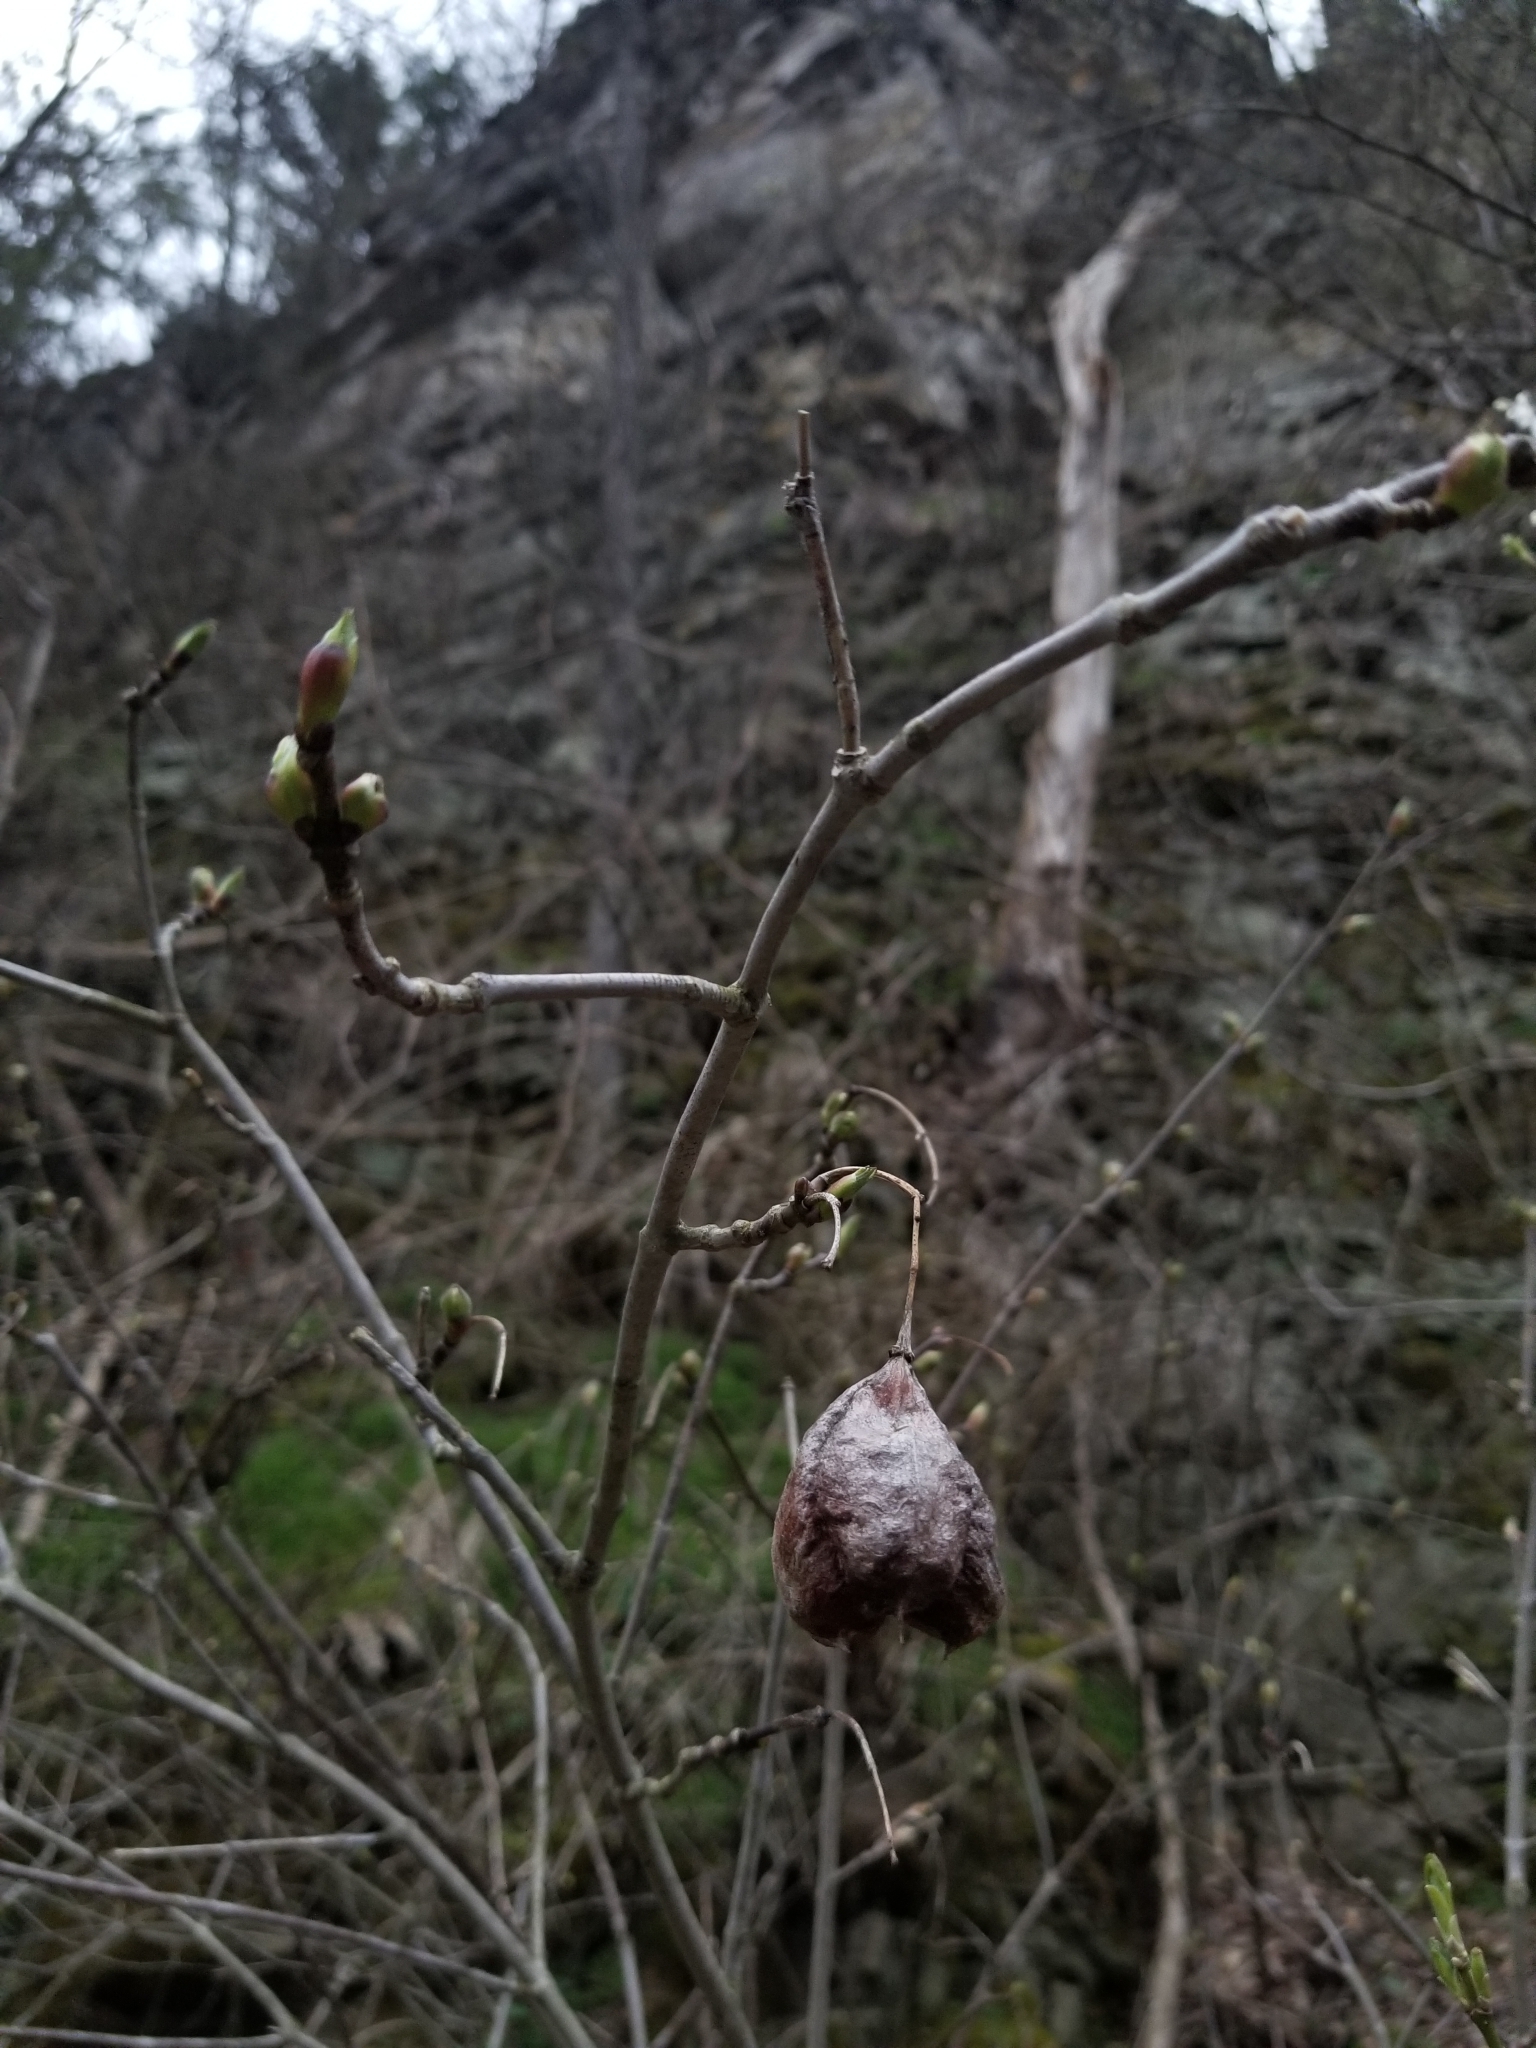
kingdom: Plantae
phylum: Tracheophyta
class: Magnoliopsida
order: Crossosomatales
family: Staphyleaceae
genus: Staphylea
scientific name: Staphylea trifolia
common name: American bladdernut
